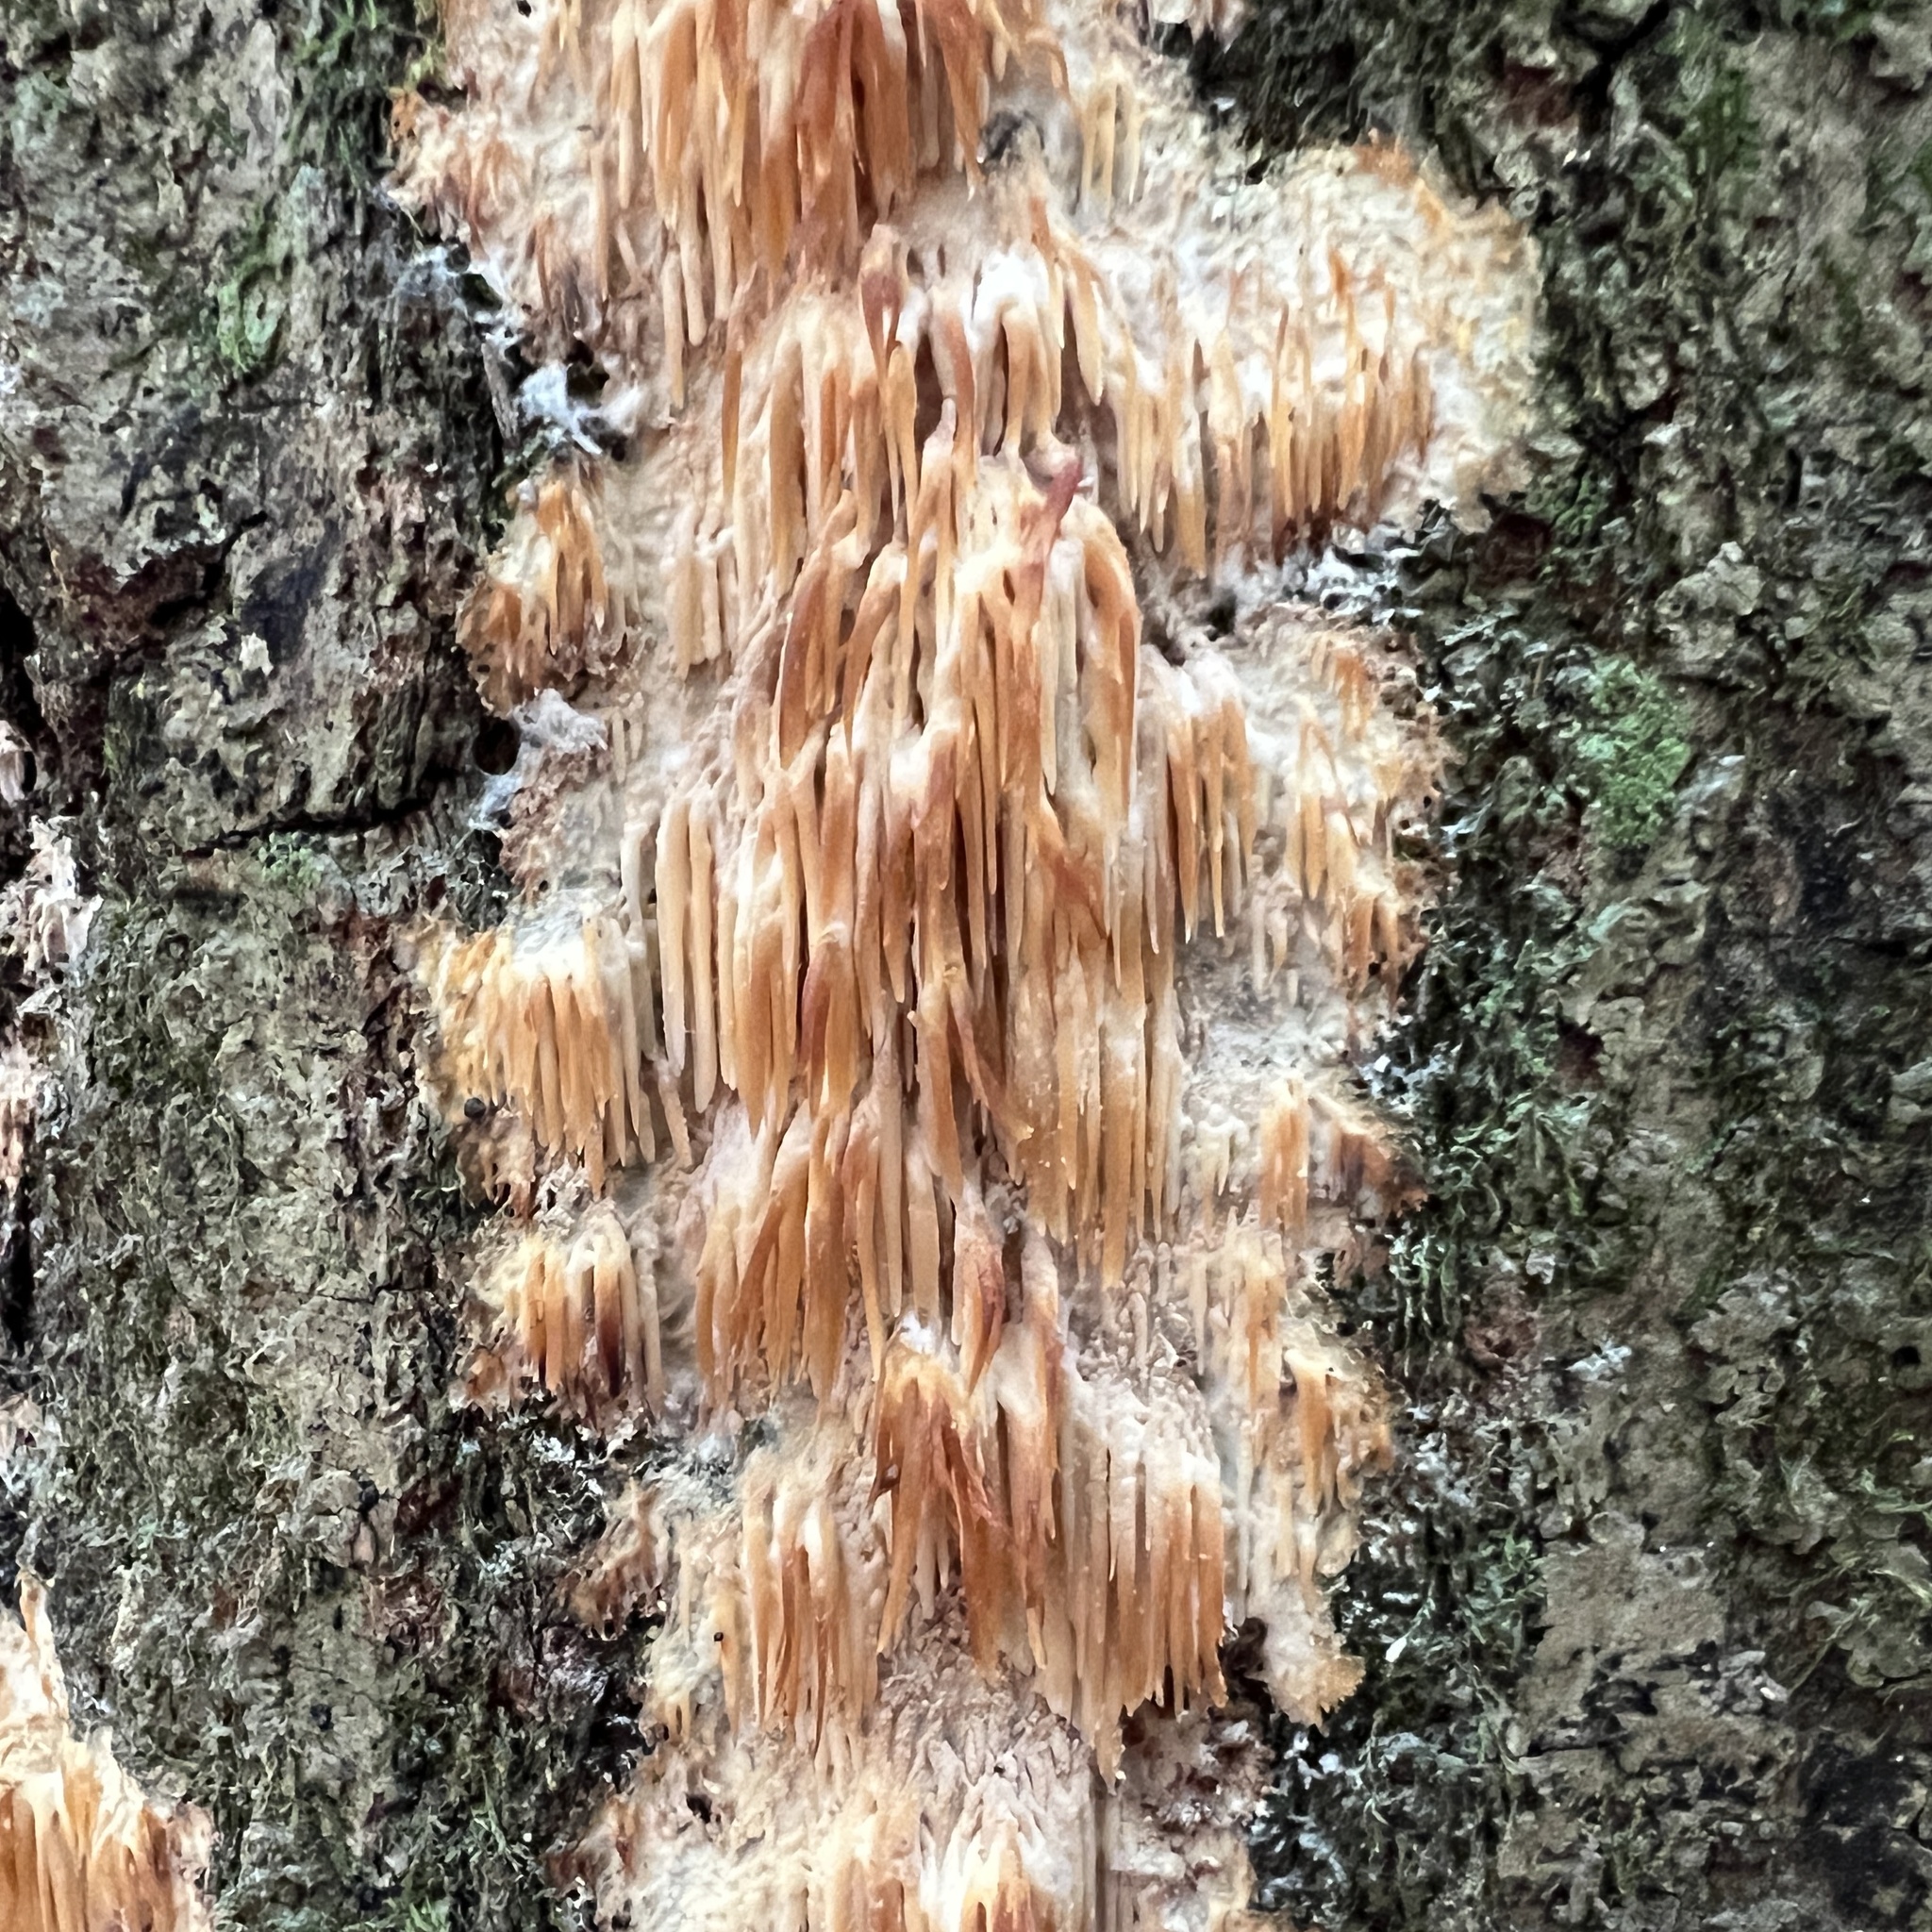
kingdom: Fungi
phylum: Basidiomycota
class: Agaricomycetes
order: Agaricales
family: Radulomycetaceae
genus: Radulomyces
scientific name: Radulomyces copelandii
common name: Asian beauty
